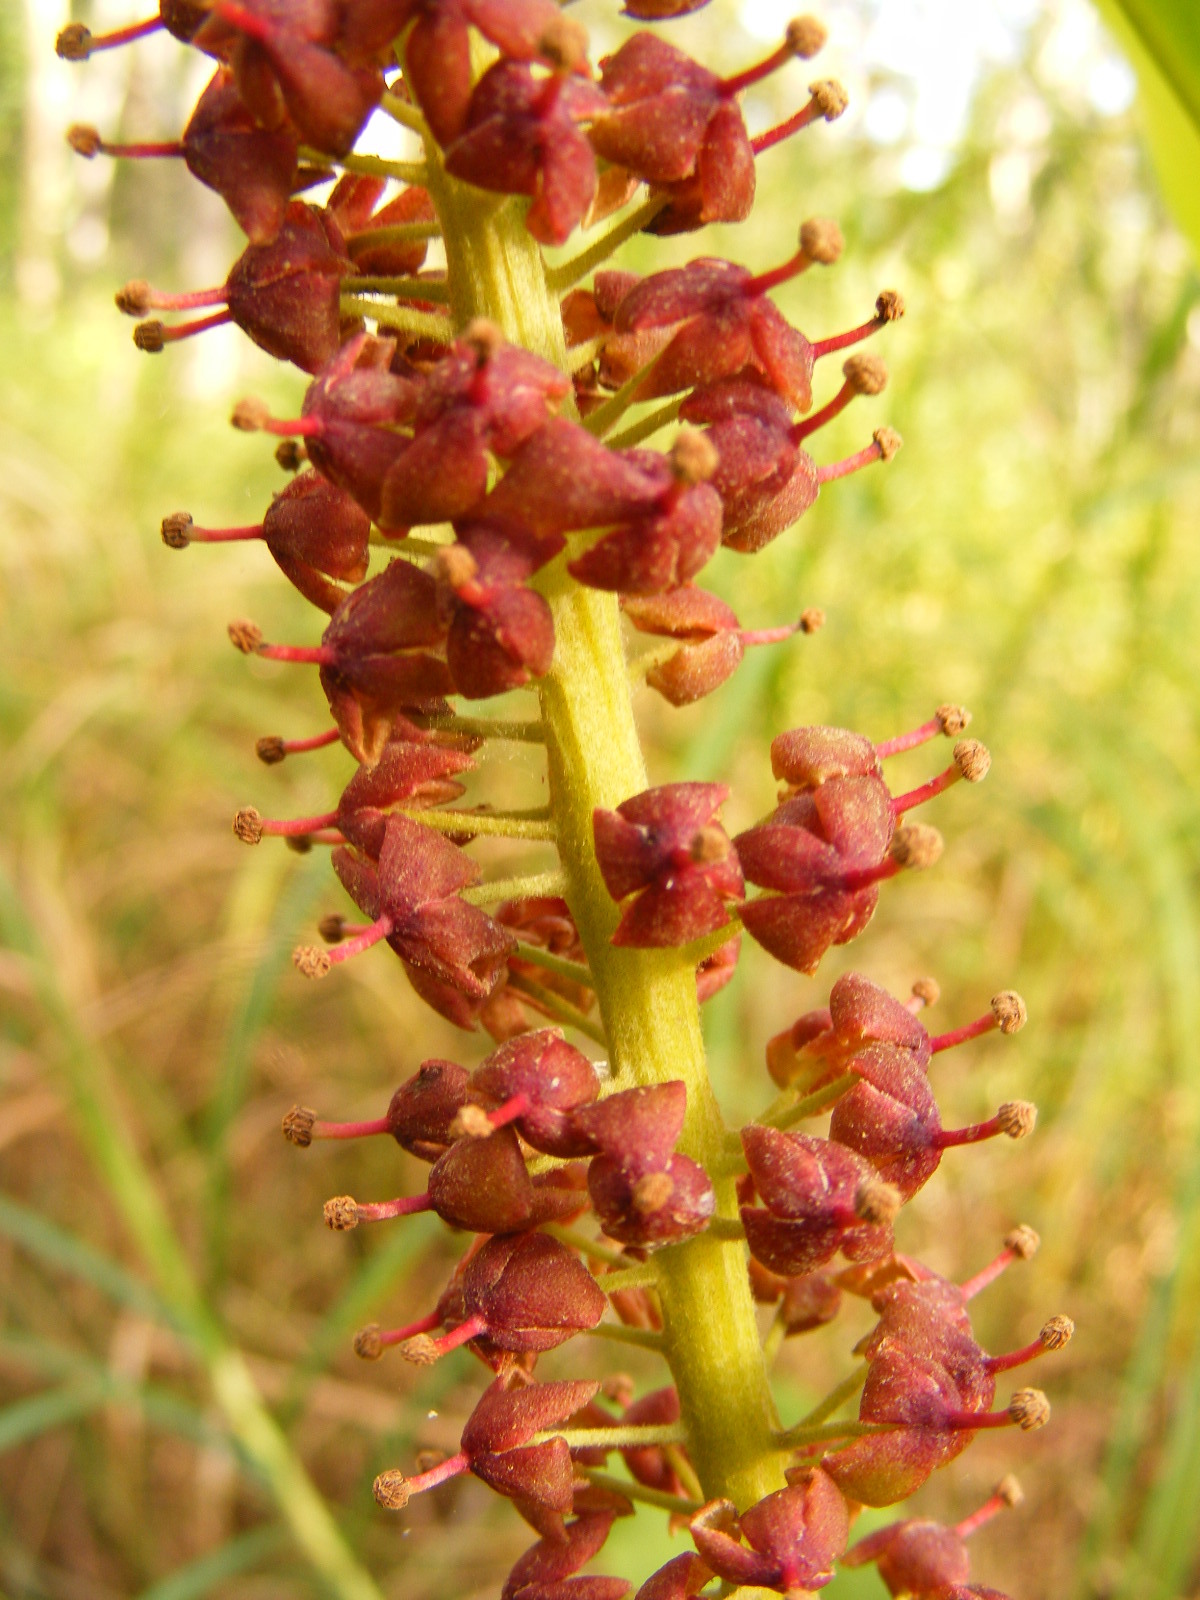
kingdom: Plantae
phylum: Tracheophyta
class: Magnoliopsida
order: Caryophyllales
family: Nepenthaceae
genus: Nepenthes
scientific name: Nepenthes mirabilis
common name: Tropical pitcherplant
